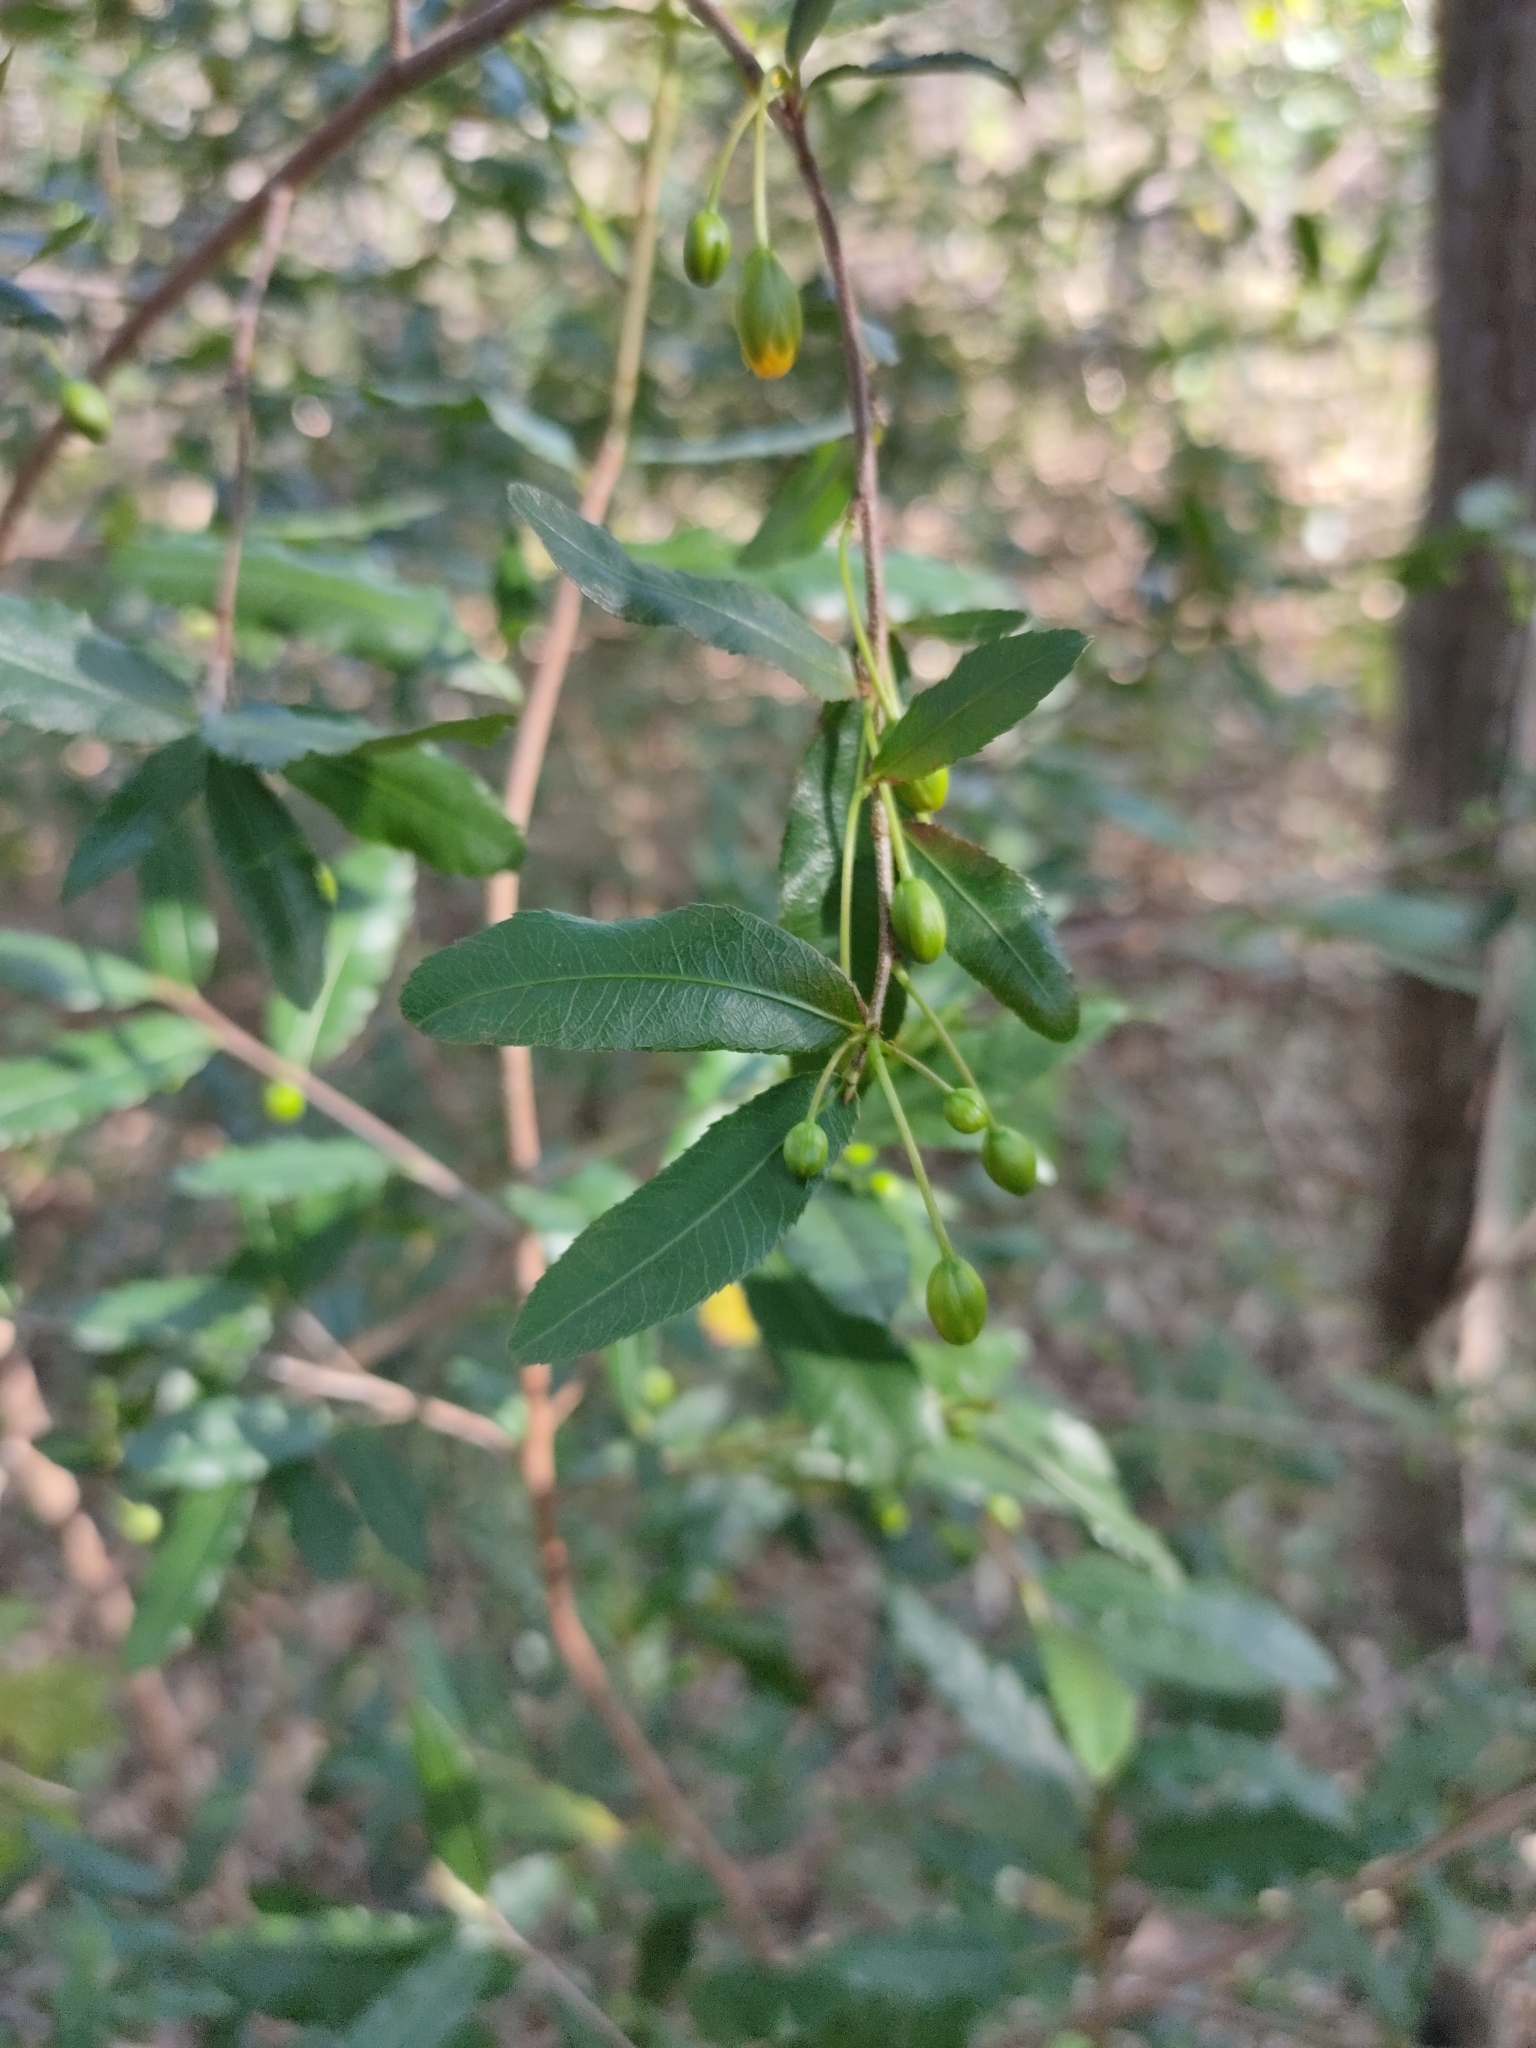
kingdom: Plantae
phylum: Tracheophyta
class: Magnoliopsida
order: Malpighiales
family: Ochnaceae
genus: Ochna
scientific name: Ochna serrulata
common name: Mickey mouse plant
